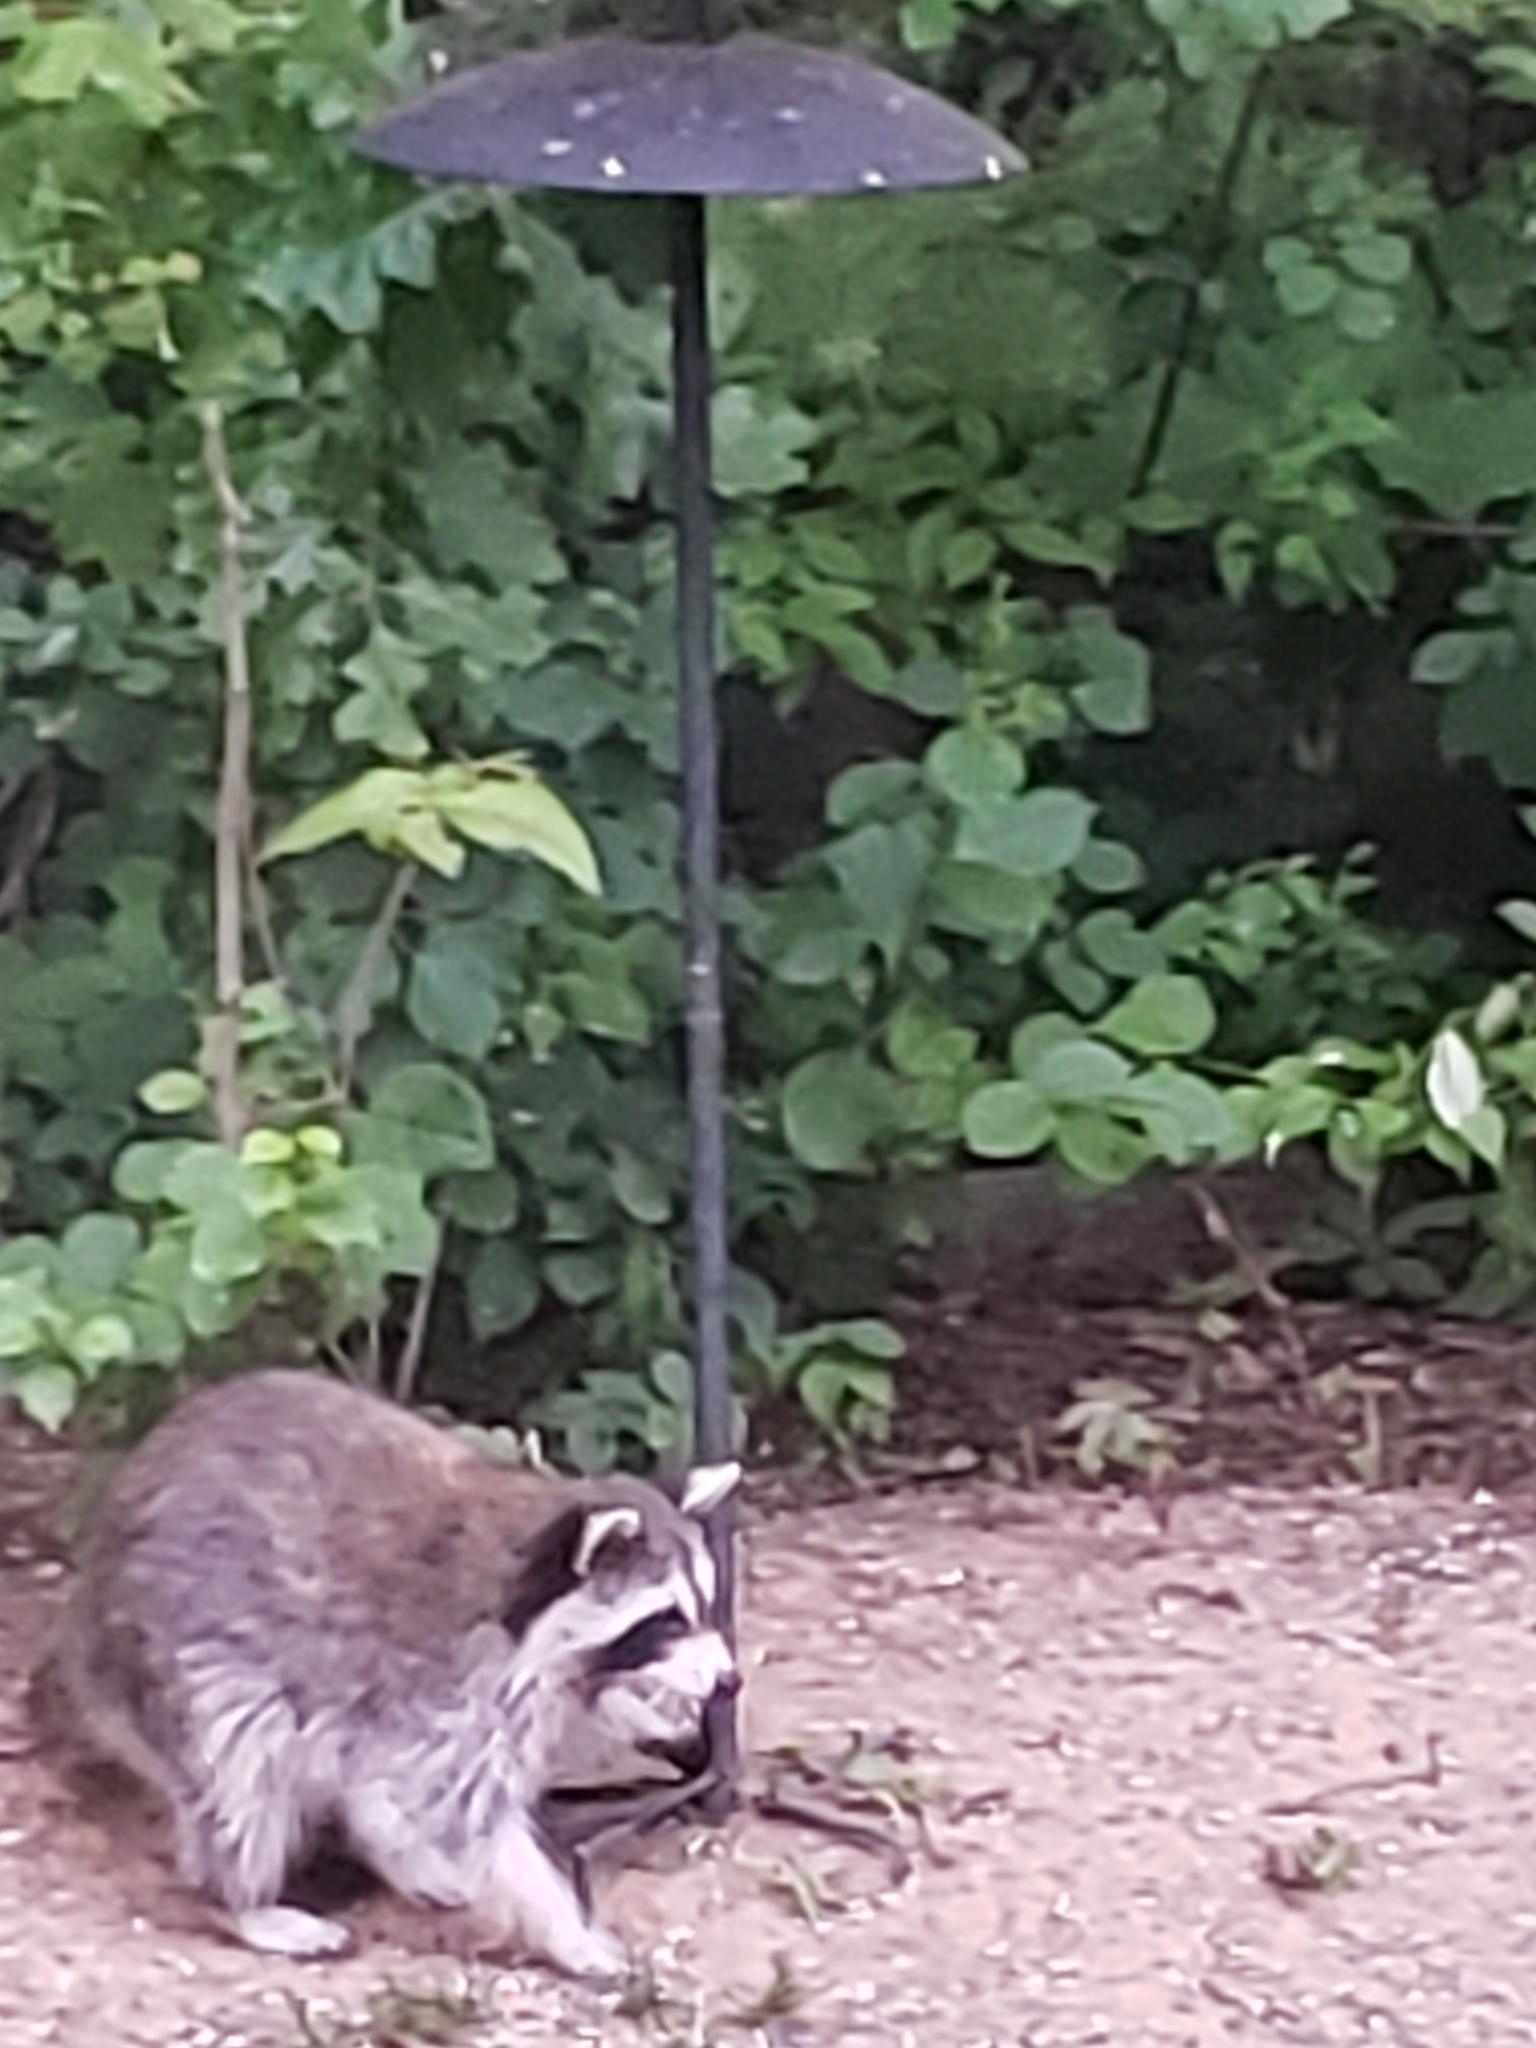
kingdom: Animalia
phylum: Chordata
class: Mammalia
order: Carnivora
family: Procyonidae
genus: Procyon
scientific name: Procyon lotor
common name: Raccoon
